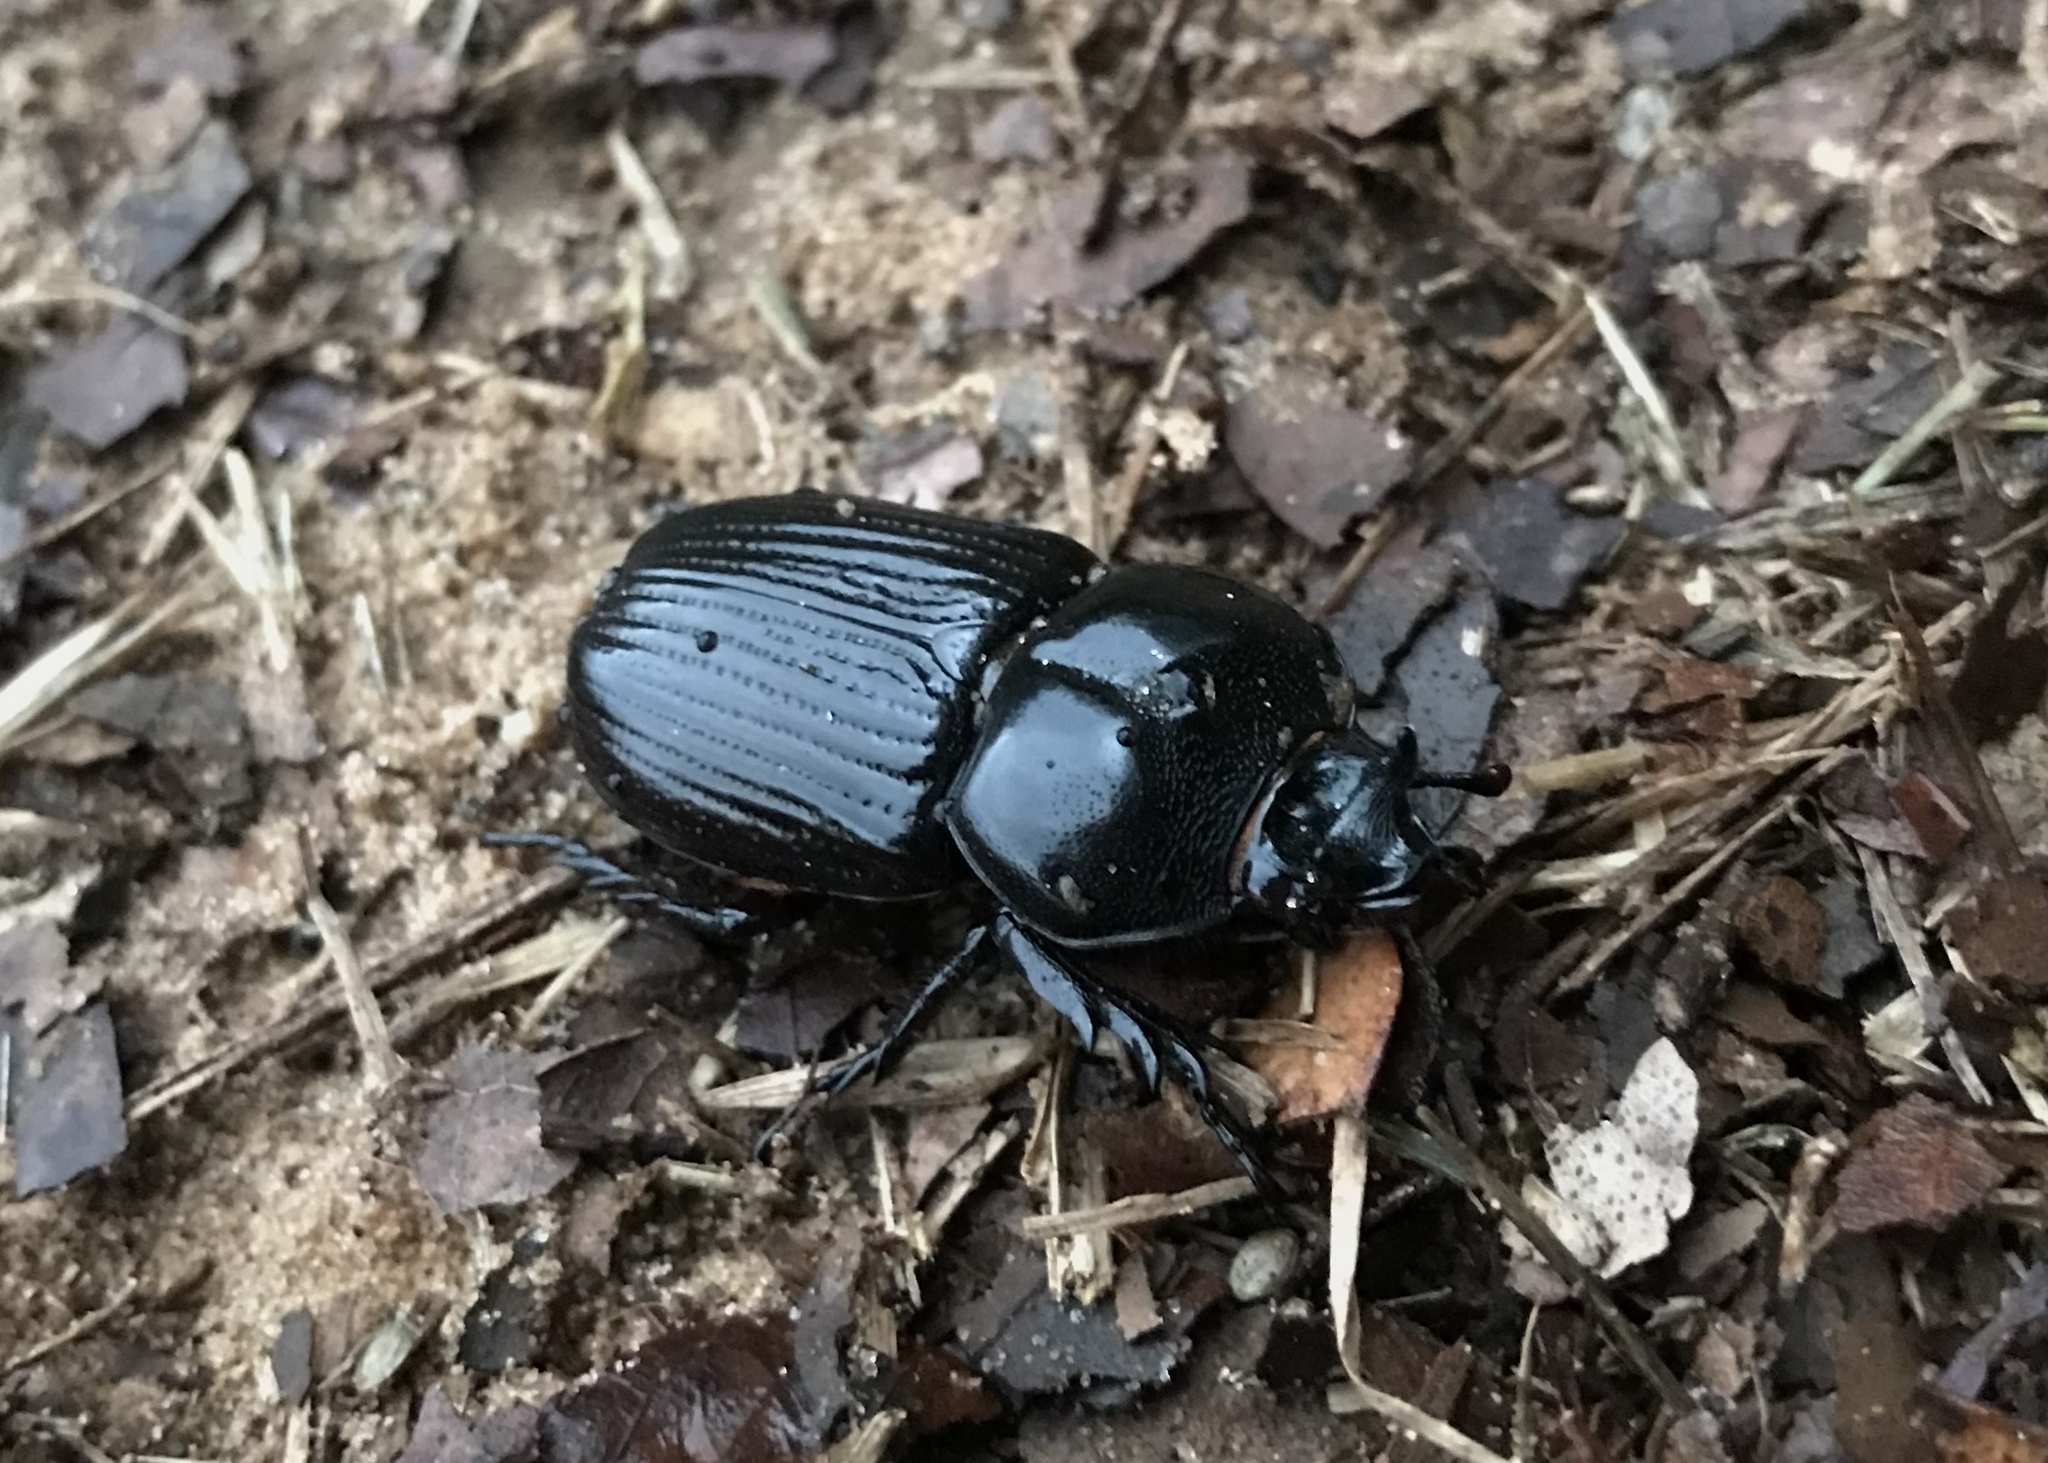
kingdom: Animalia
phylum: Arthropoda
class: Insecta
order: Coleoptera
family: Scarabaeidae
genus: Phileurus
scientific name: Phileurus truncatus
